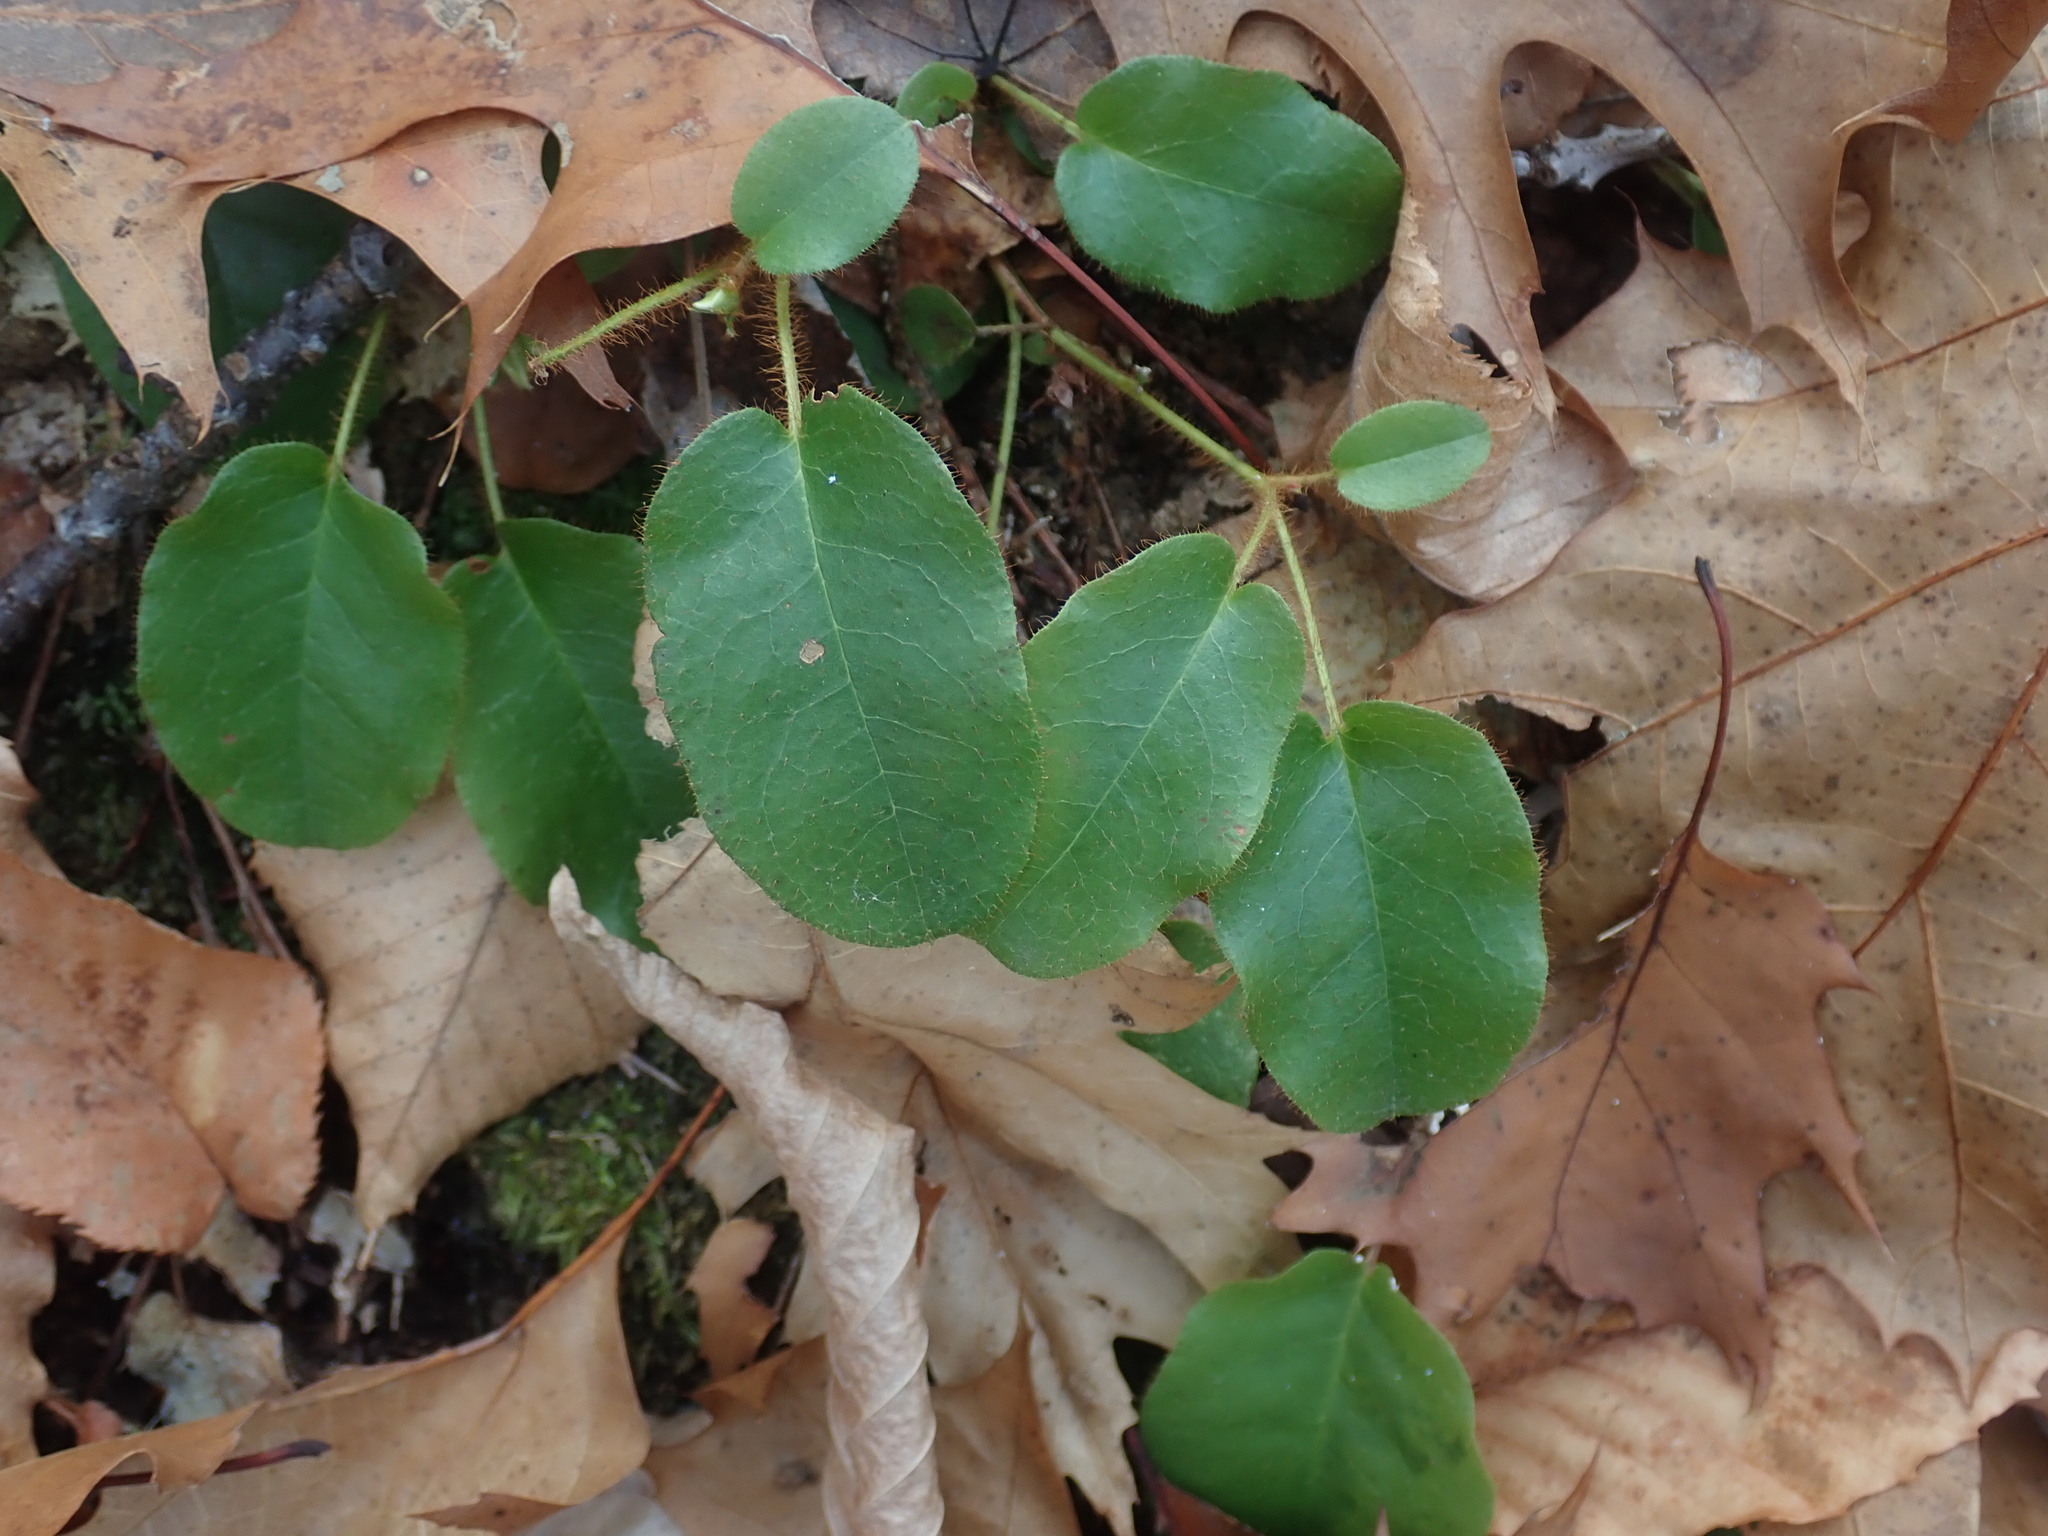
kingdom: Plantae
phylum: Tracheophyta
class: Magnoliopsida
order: Ericales
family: Ericaceae
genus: Epigaea
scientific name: Epigaea repens
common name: Gravelroot
